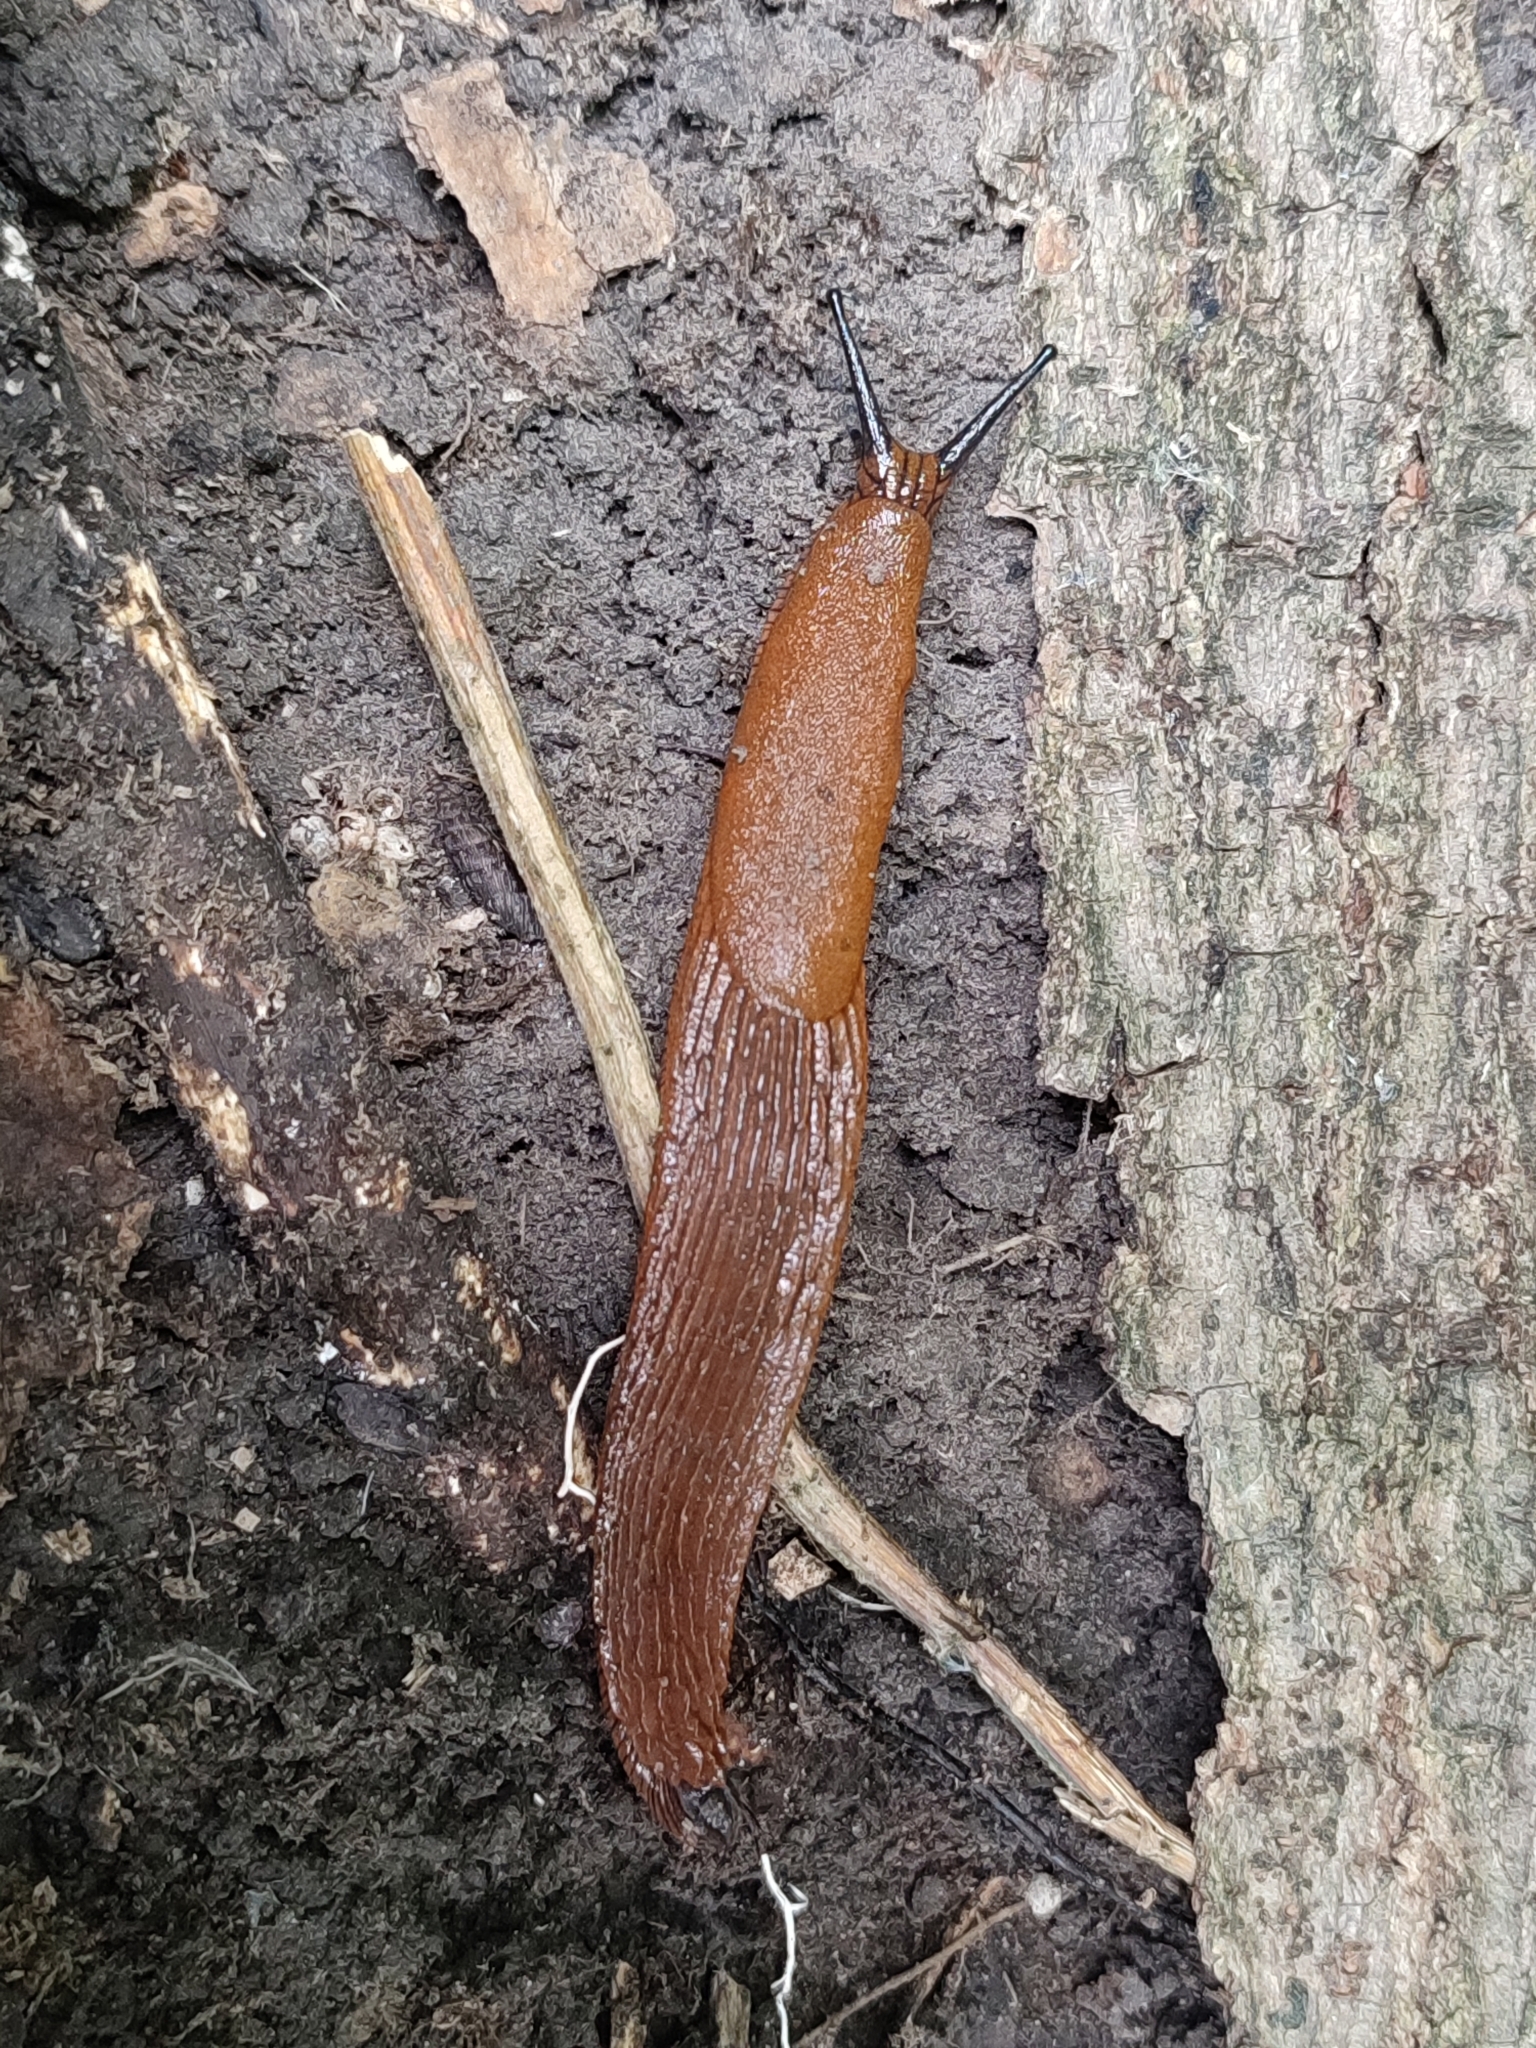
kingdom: Animalia
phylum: Mollusca
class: Gastropoda
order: Stylommatophora
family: Arionidae
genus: Arion
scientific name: Arion vulgaris
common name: Lusitanian slug
